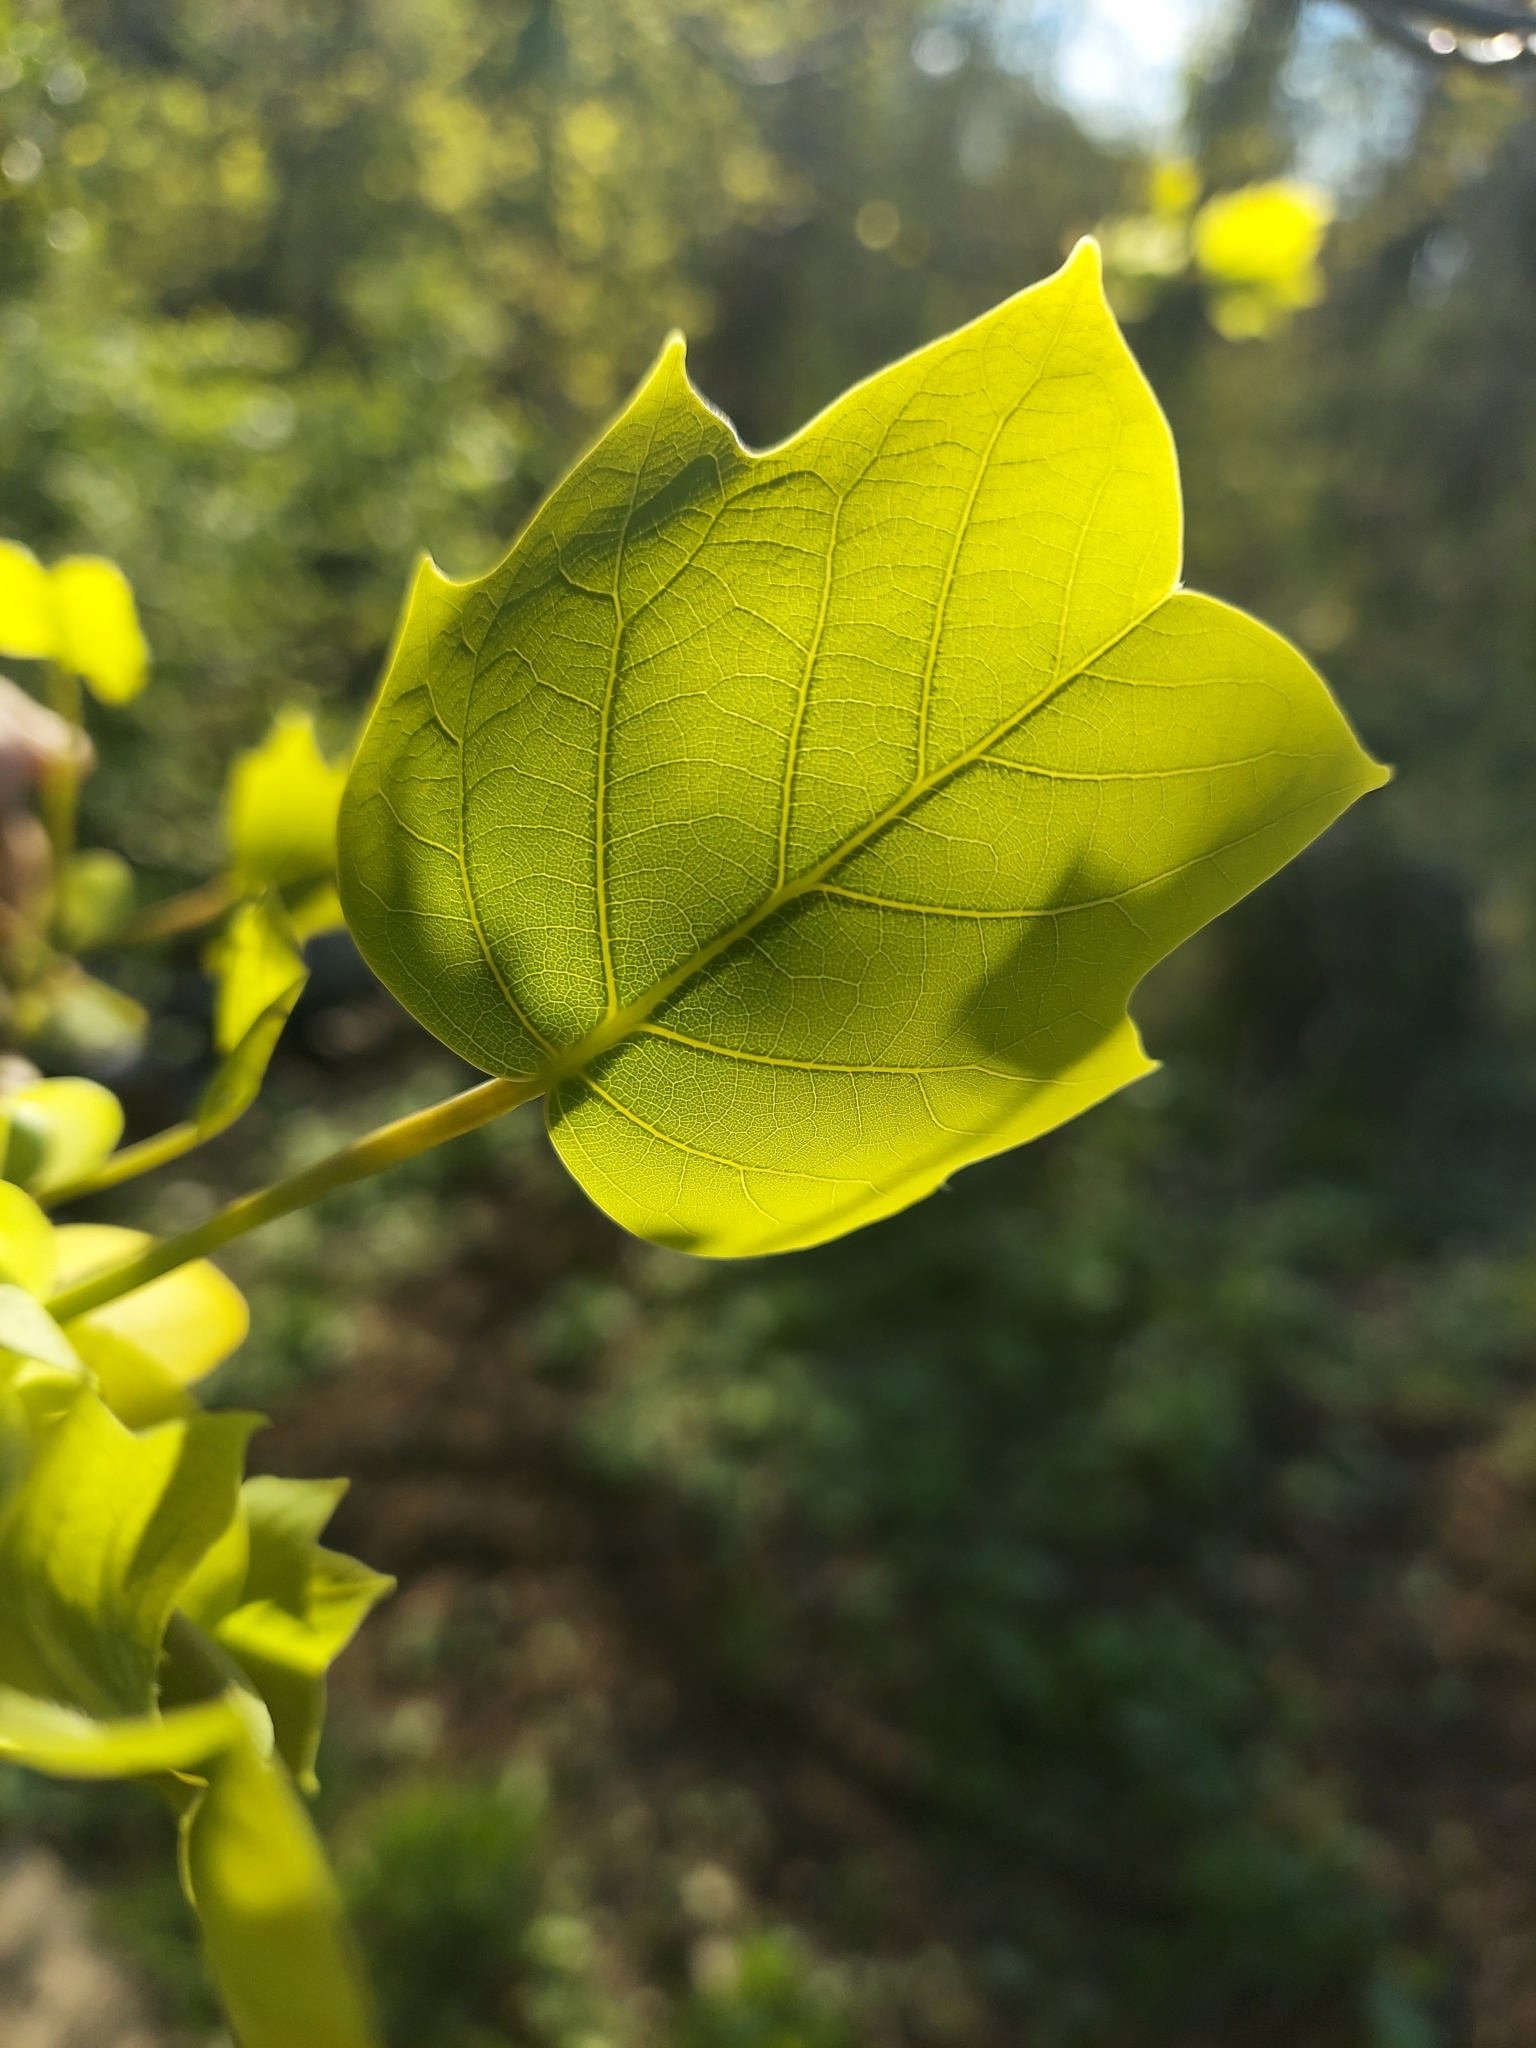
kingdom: Plantae
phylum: Tracheophyta
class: Magnoliopsida
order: Magnoliales
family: Magnoliaceae
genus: Liriodendron
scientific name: Liriodendron tulipifera
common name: Tulip tree
